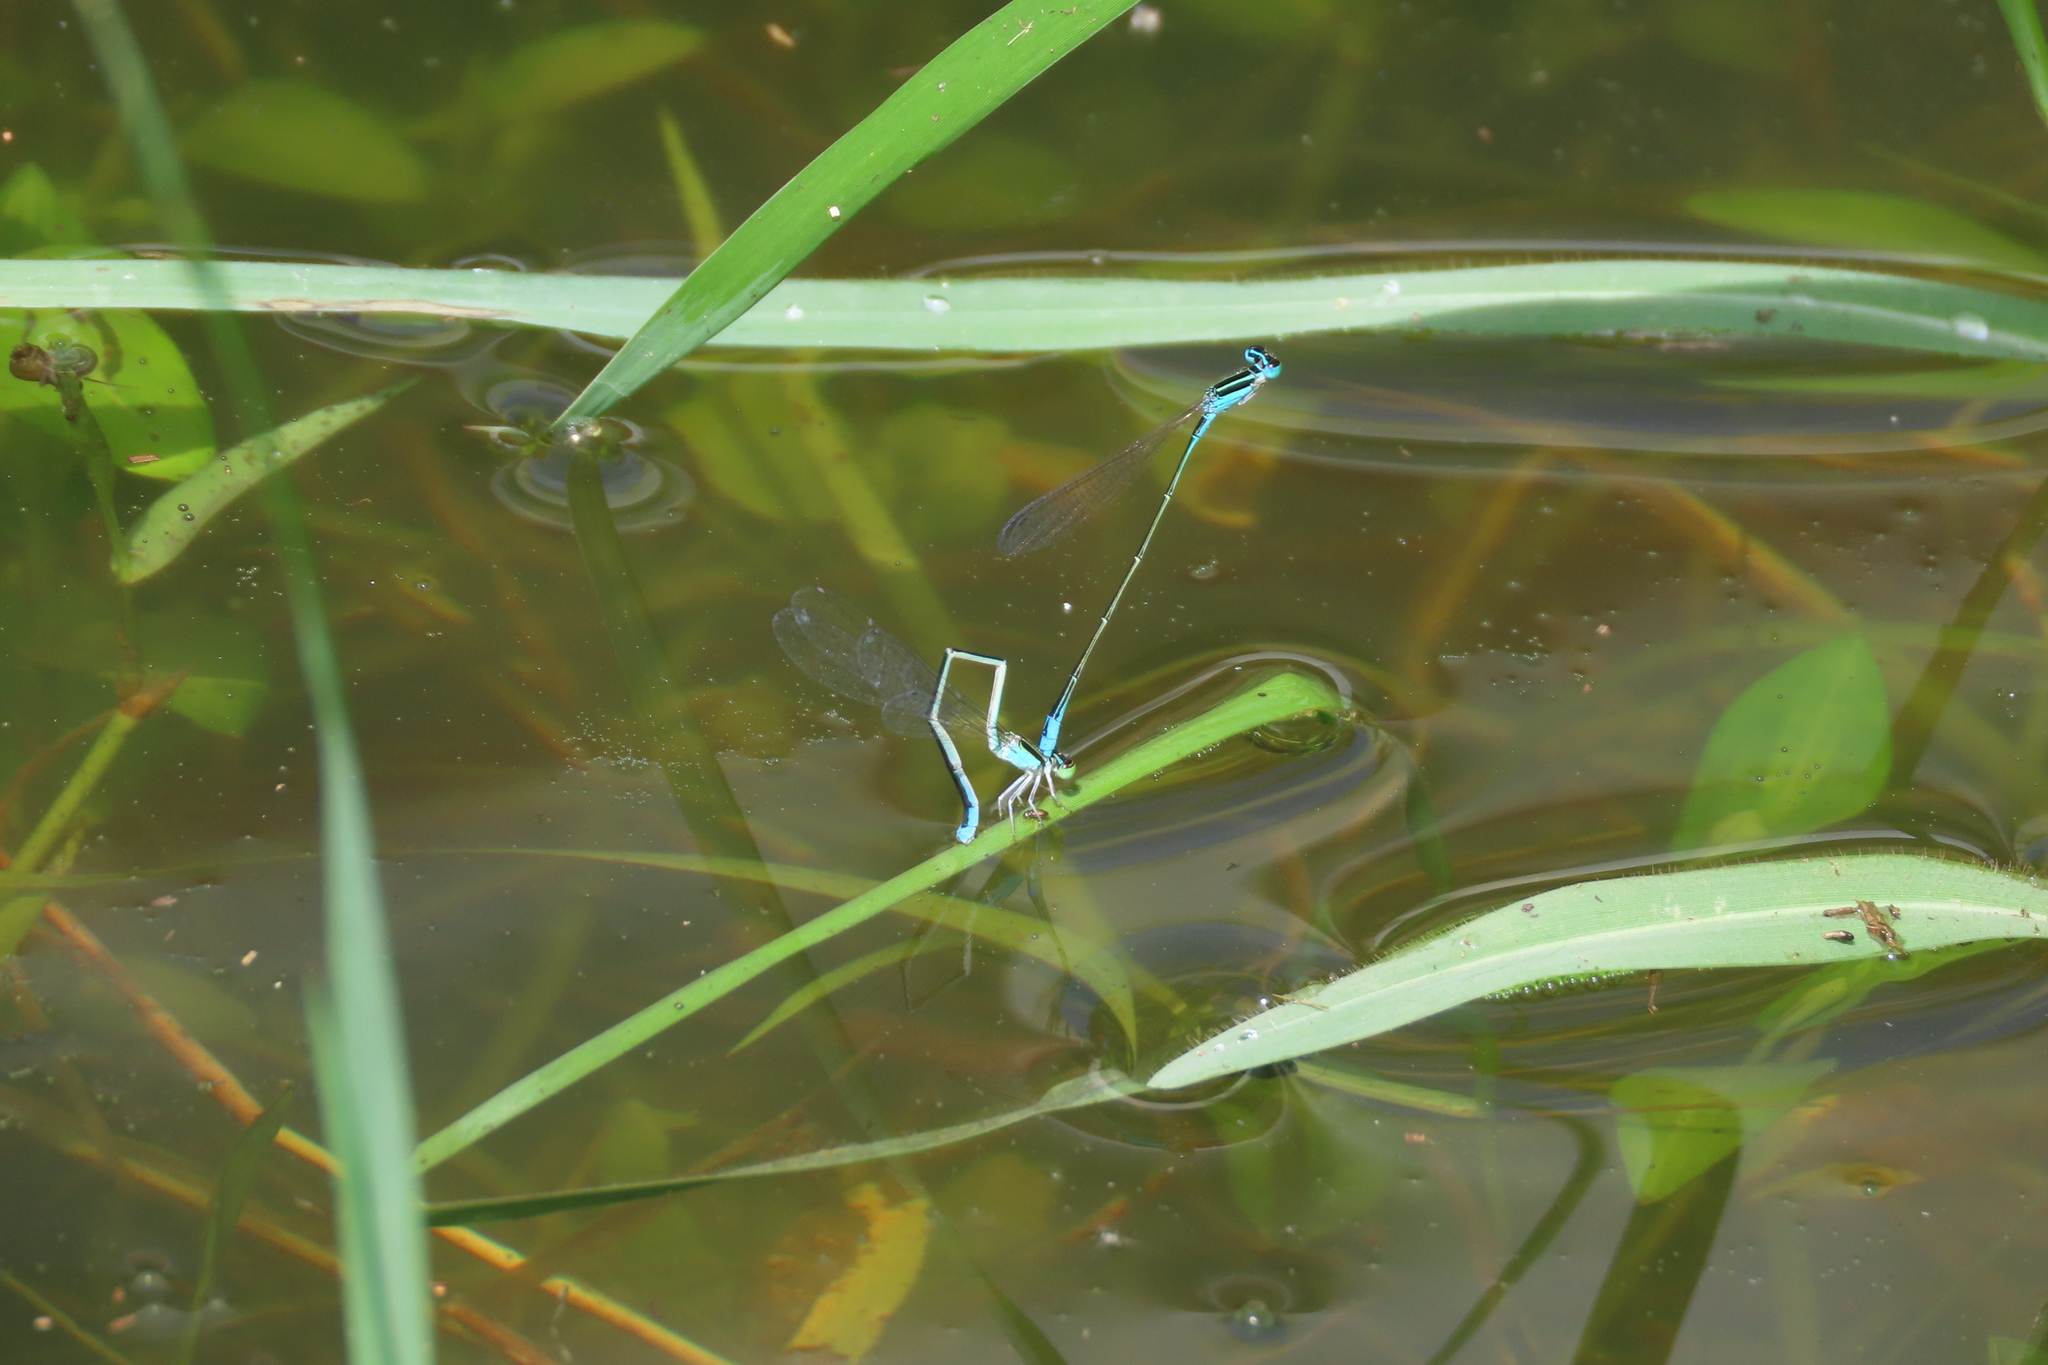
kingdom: Animalia
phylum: Arthropoda
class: Insecta
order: Odonata
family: Coenagrionidae
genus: Aciagrion
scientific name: Aciagrion occidentale
